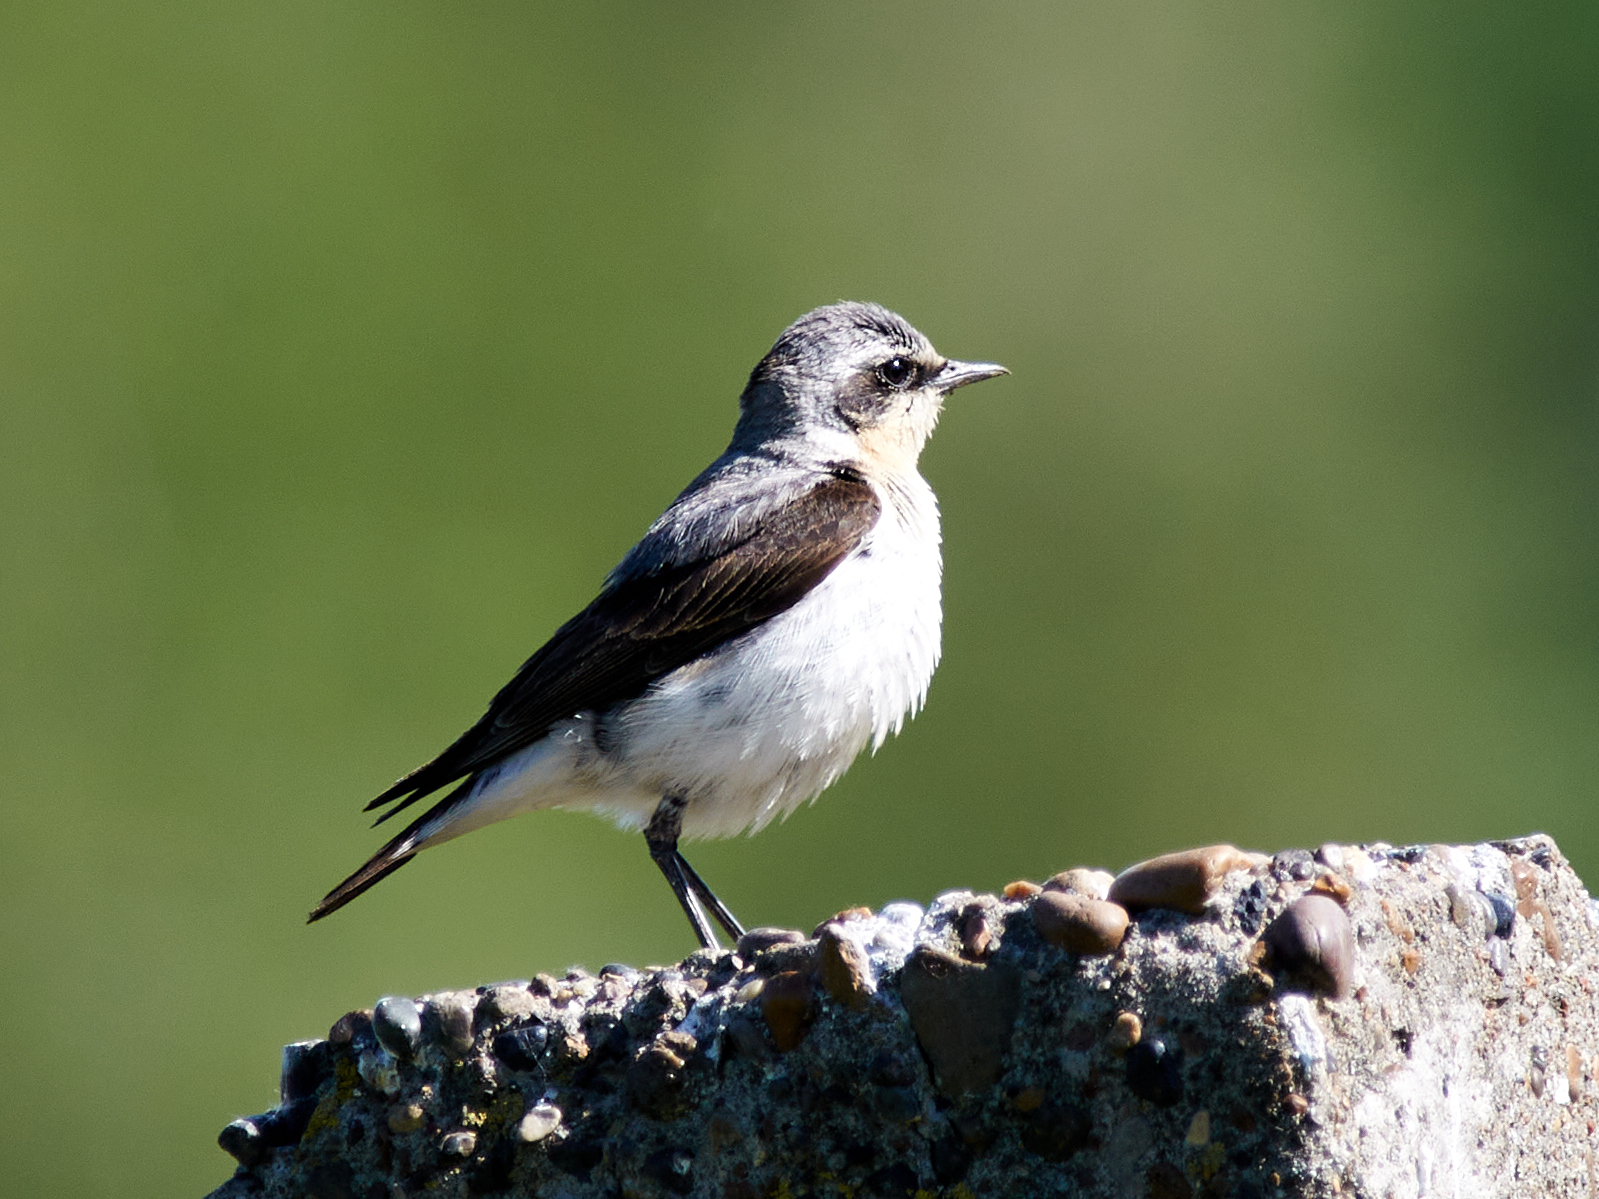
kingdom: Animalia
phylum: Chordata
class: Aves
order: Passeriformes
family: Muscicapidae
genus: Oenanthe
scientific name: Oenanthe oenanthe
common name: Northern wheatear
